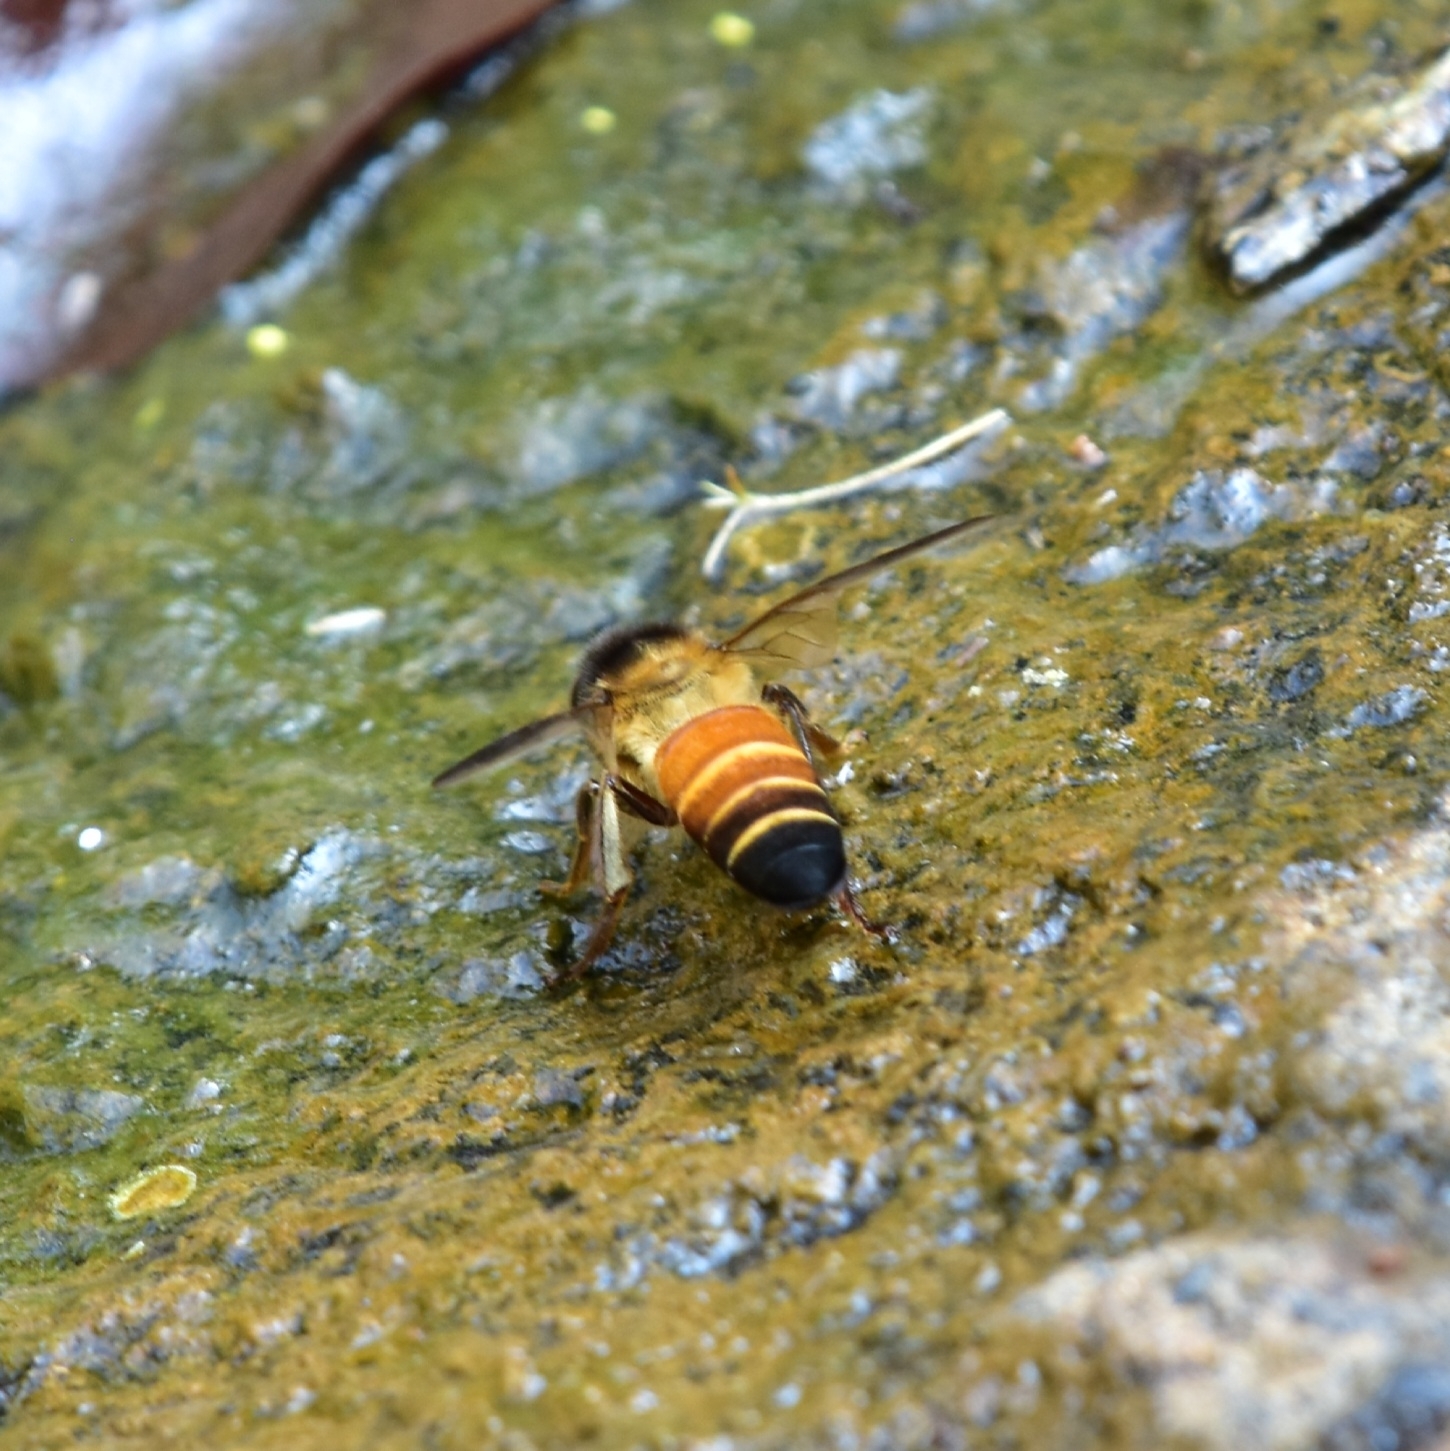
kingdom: Animalia
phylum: Arthropoda
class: Insecta
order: Hymenoptera
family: Apidae
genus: Apis
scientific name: Apis dorsata
